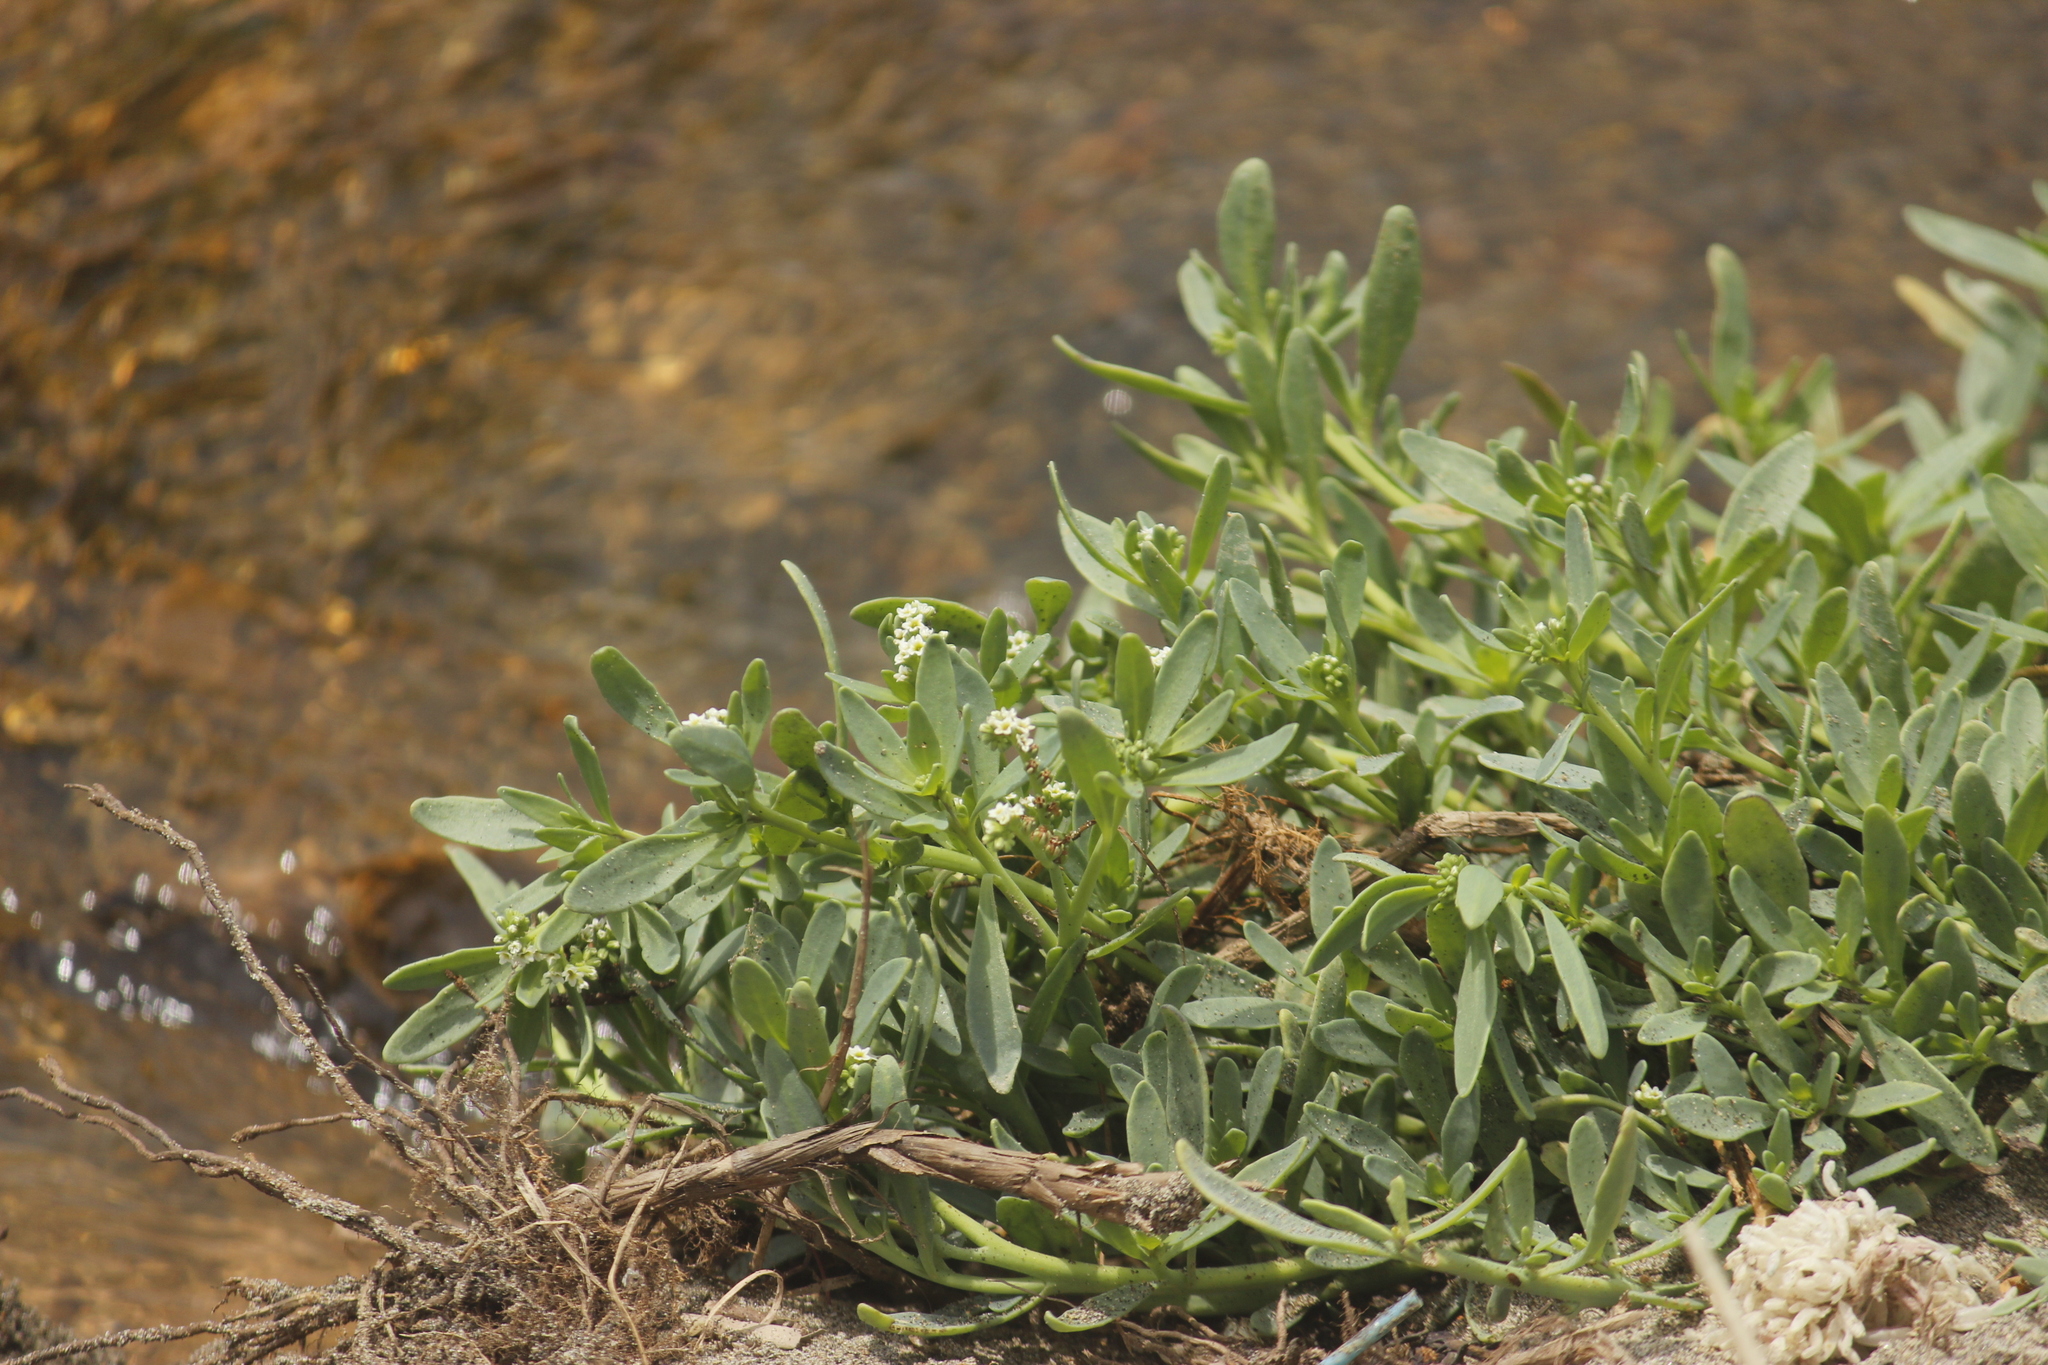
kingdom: Plantae
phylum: Tracheophyta
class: Magnoliopsida
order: Boraginales
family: Heliotropiaceae
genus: Heliotropium
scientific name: Heliotropium curassavicum
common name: Seaside heliotrope
